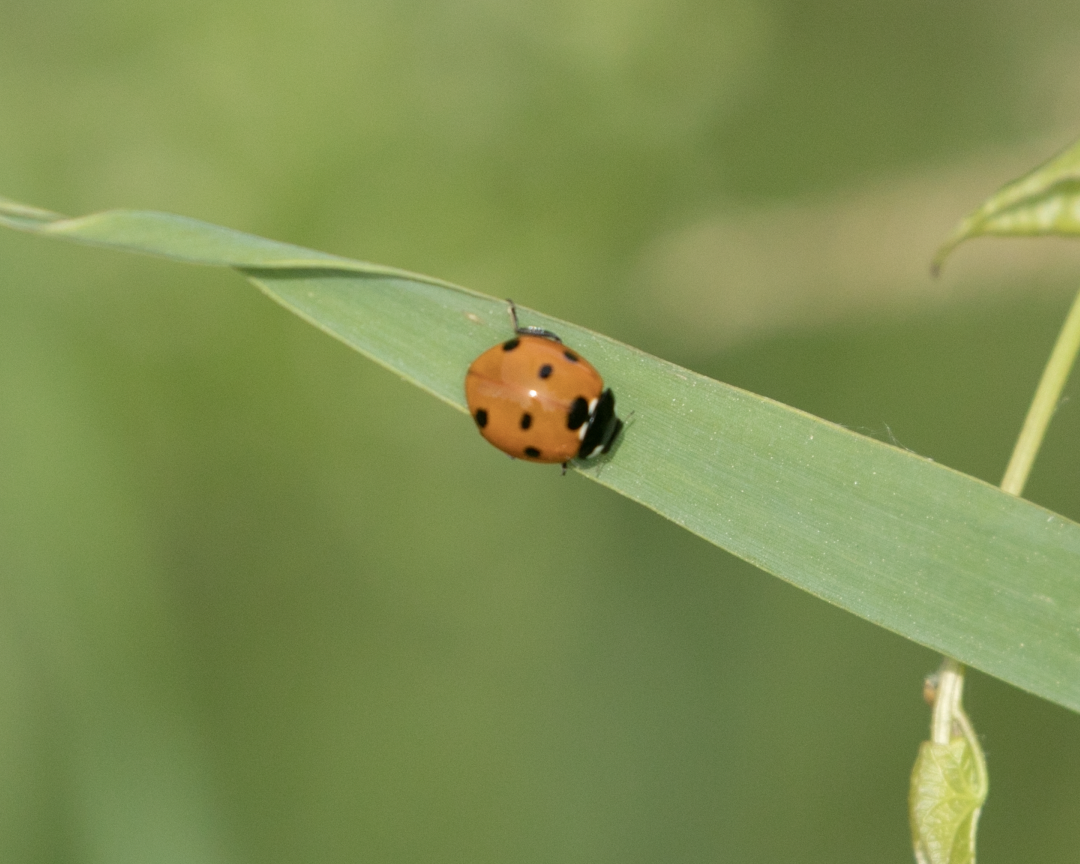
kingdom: Animalia
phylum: Arthropoda
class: Insecta
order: Coleoptera
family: Coccinellidae
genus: Coccinella
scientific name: Coccinella septempunctata
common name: Sevenspotted lady beetle
